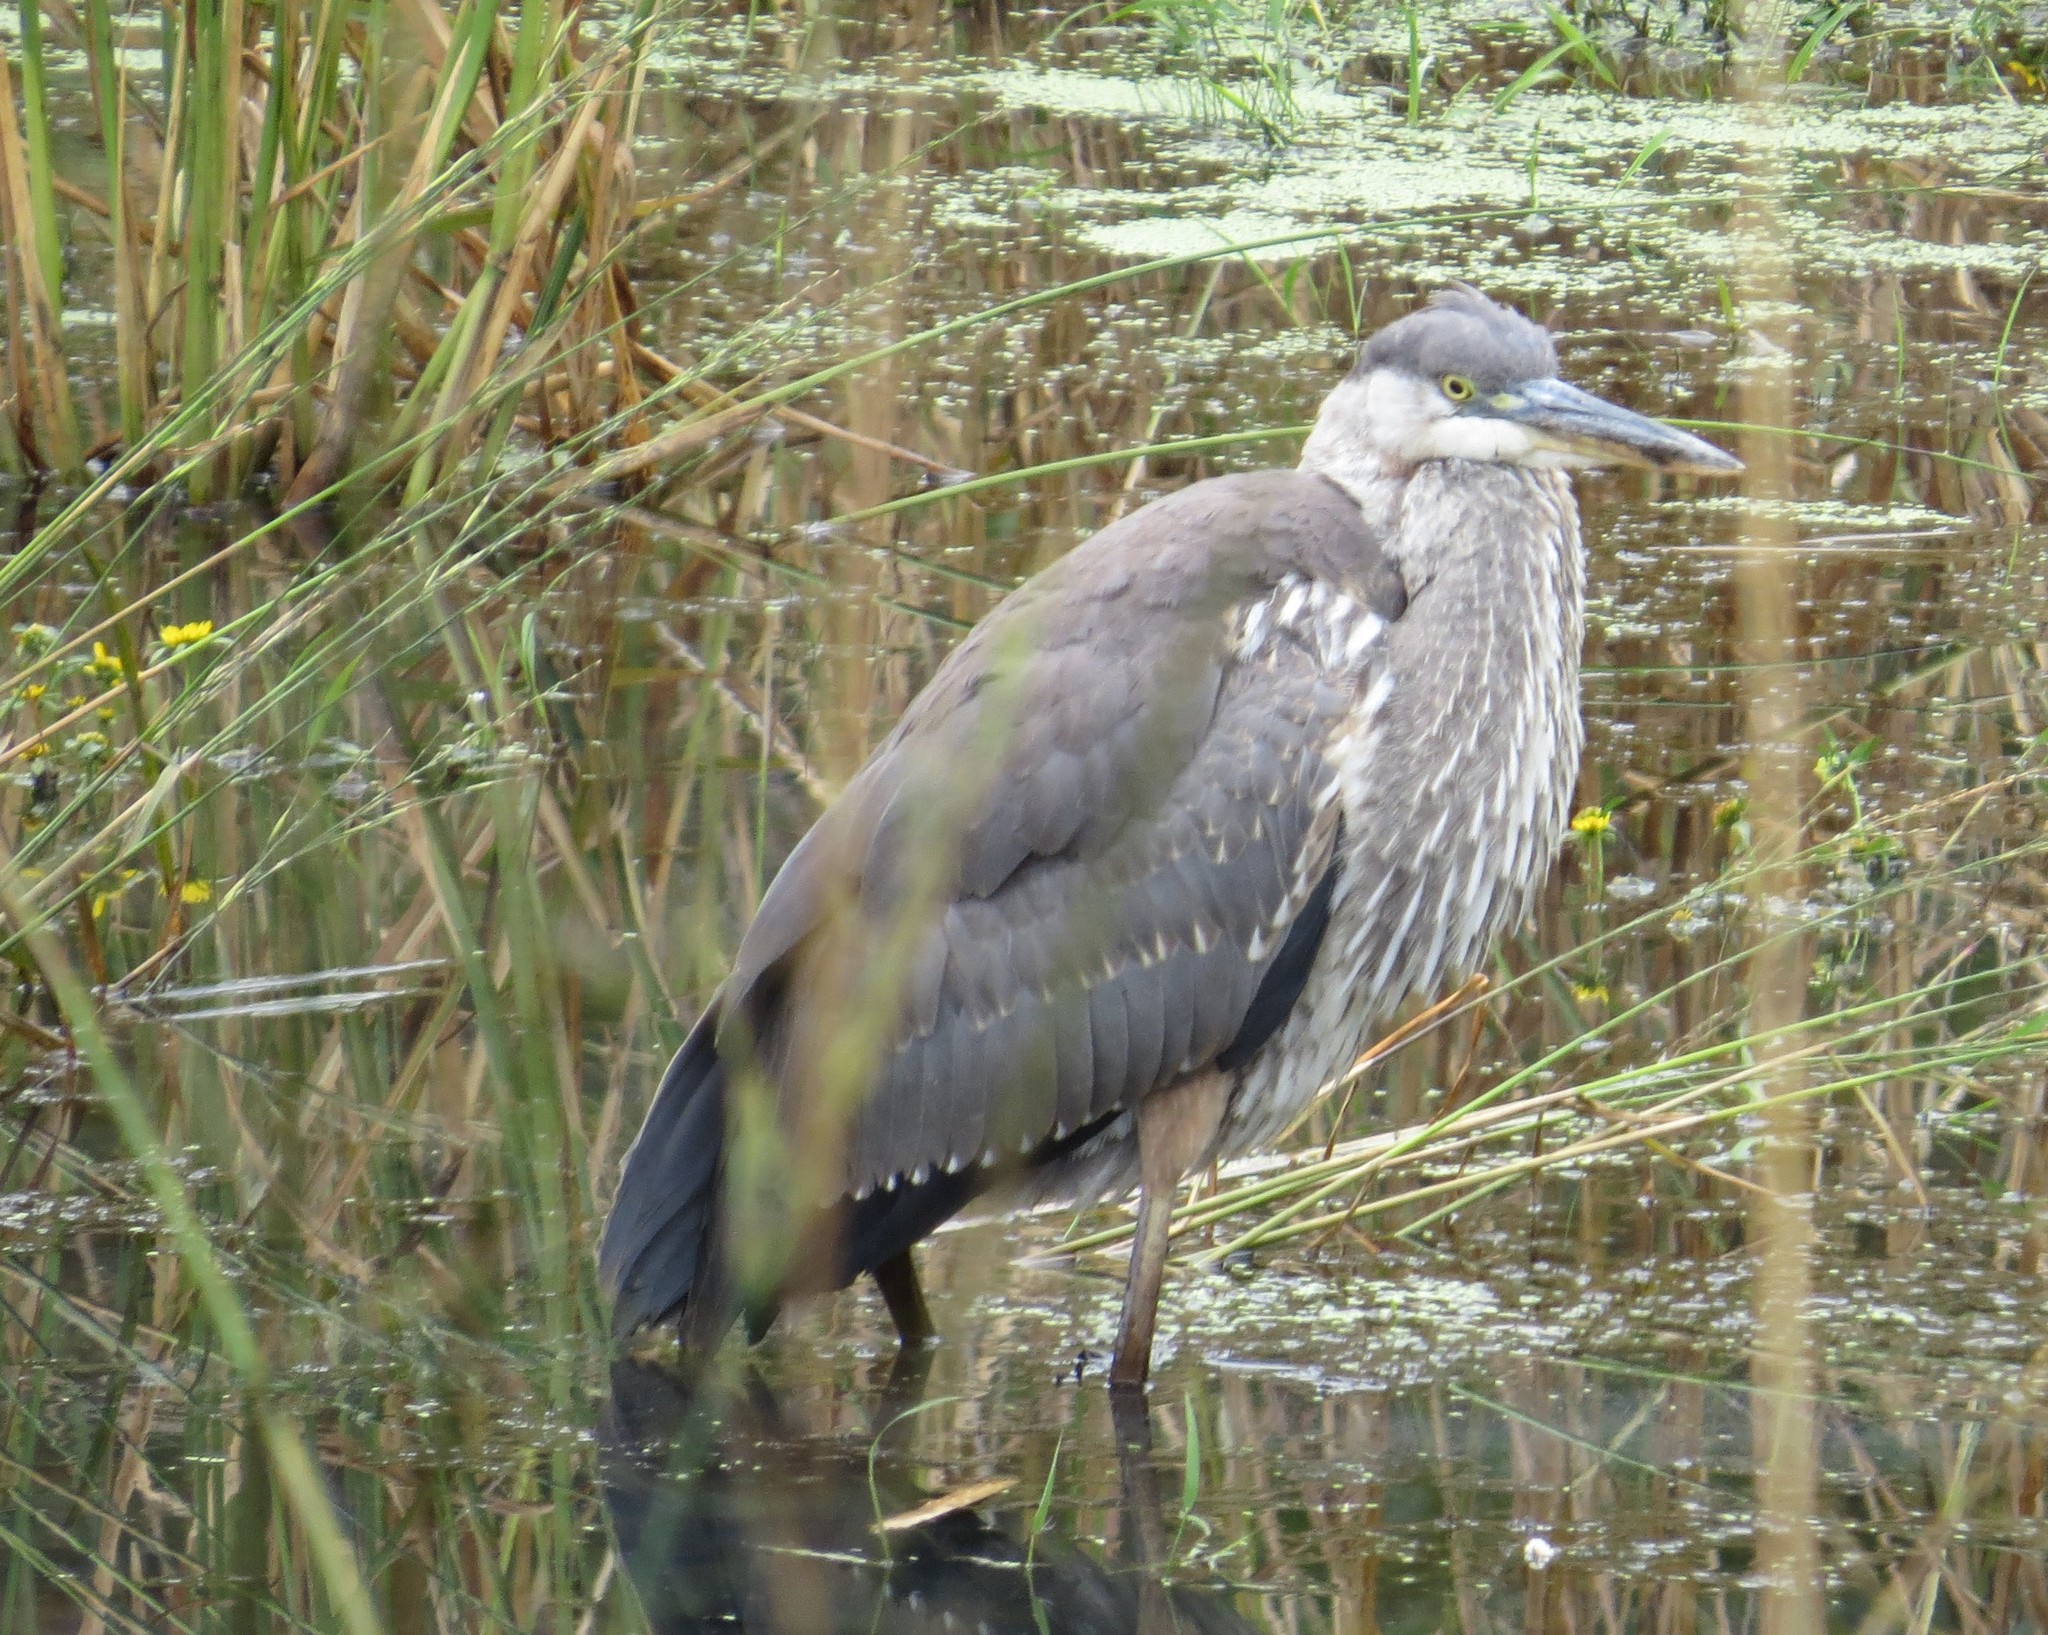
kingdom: Animalia
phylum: Chordata
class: Aves
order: Pelecaniformes
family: Ardeidae
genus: Ardea
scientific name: Ardea herodias
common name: Great blue heron
